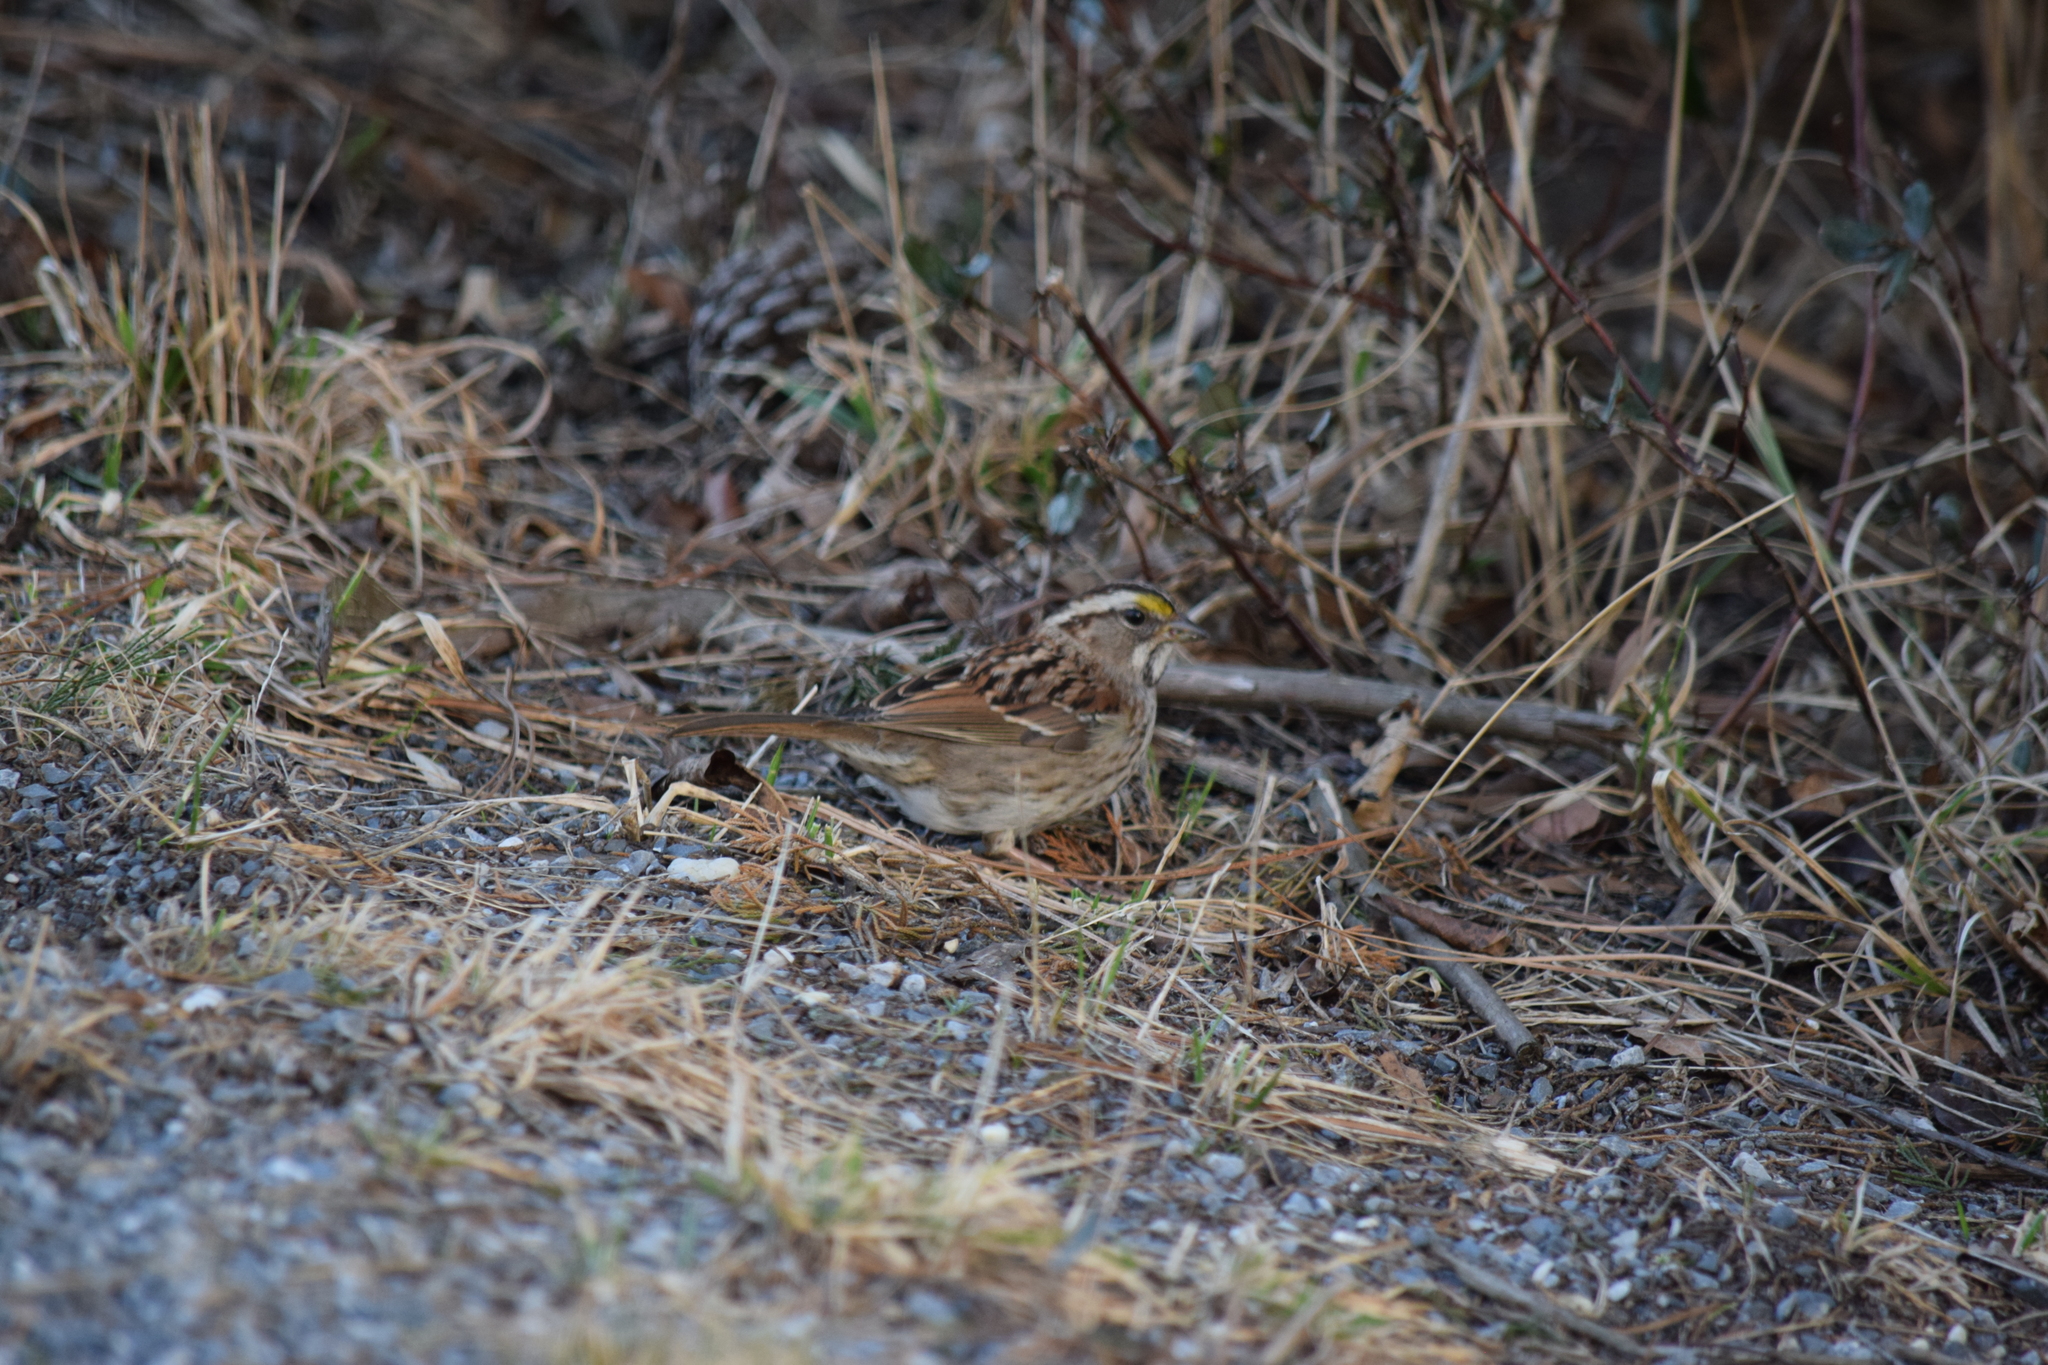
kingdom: Animalia
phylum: Chordata
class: Aves
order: Passeriformes
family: Passerellidae
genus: Zonotrichia
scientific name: Zonotrichia albicollis
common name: White-throated sparrow
